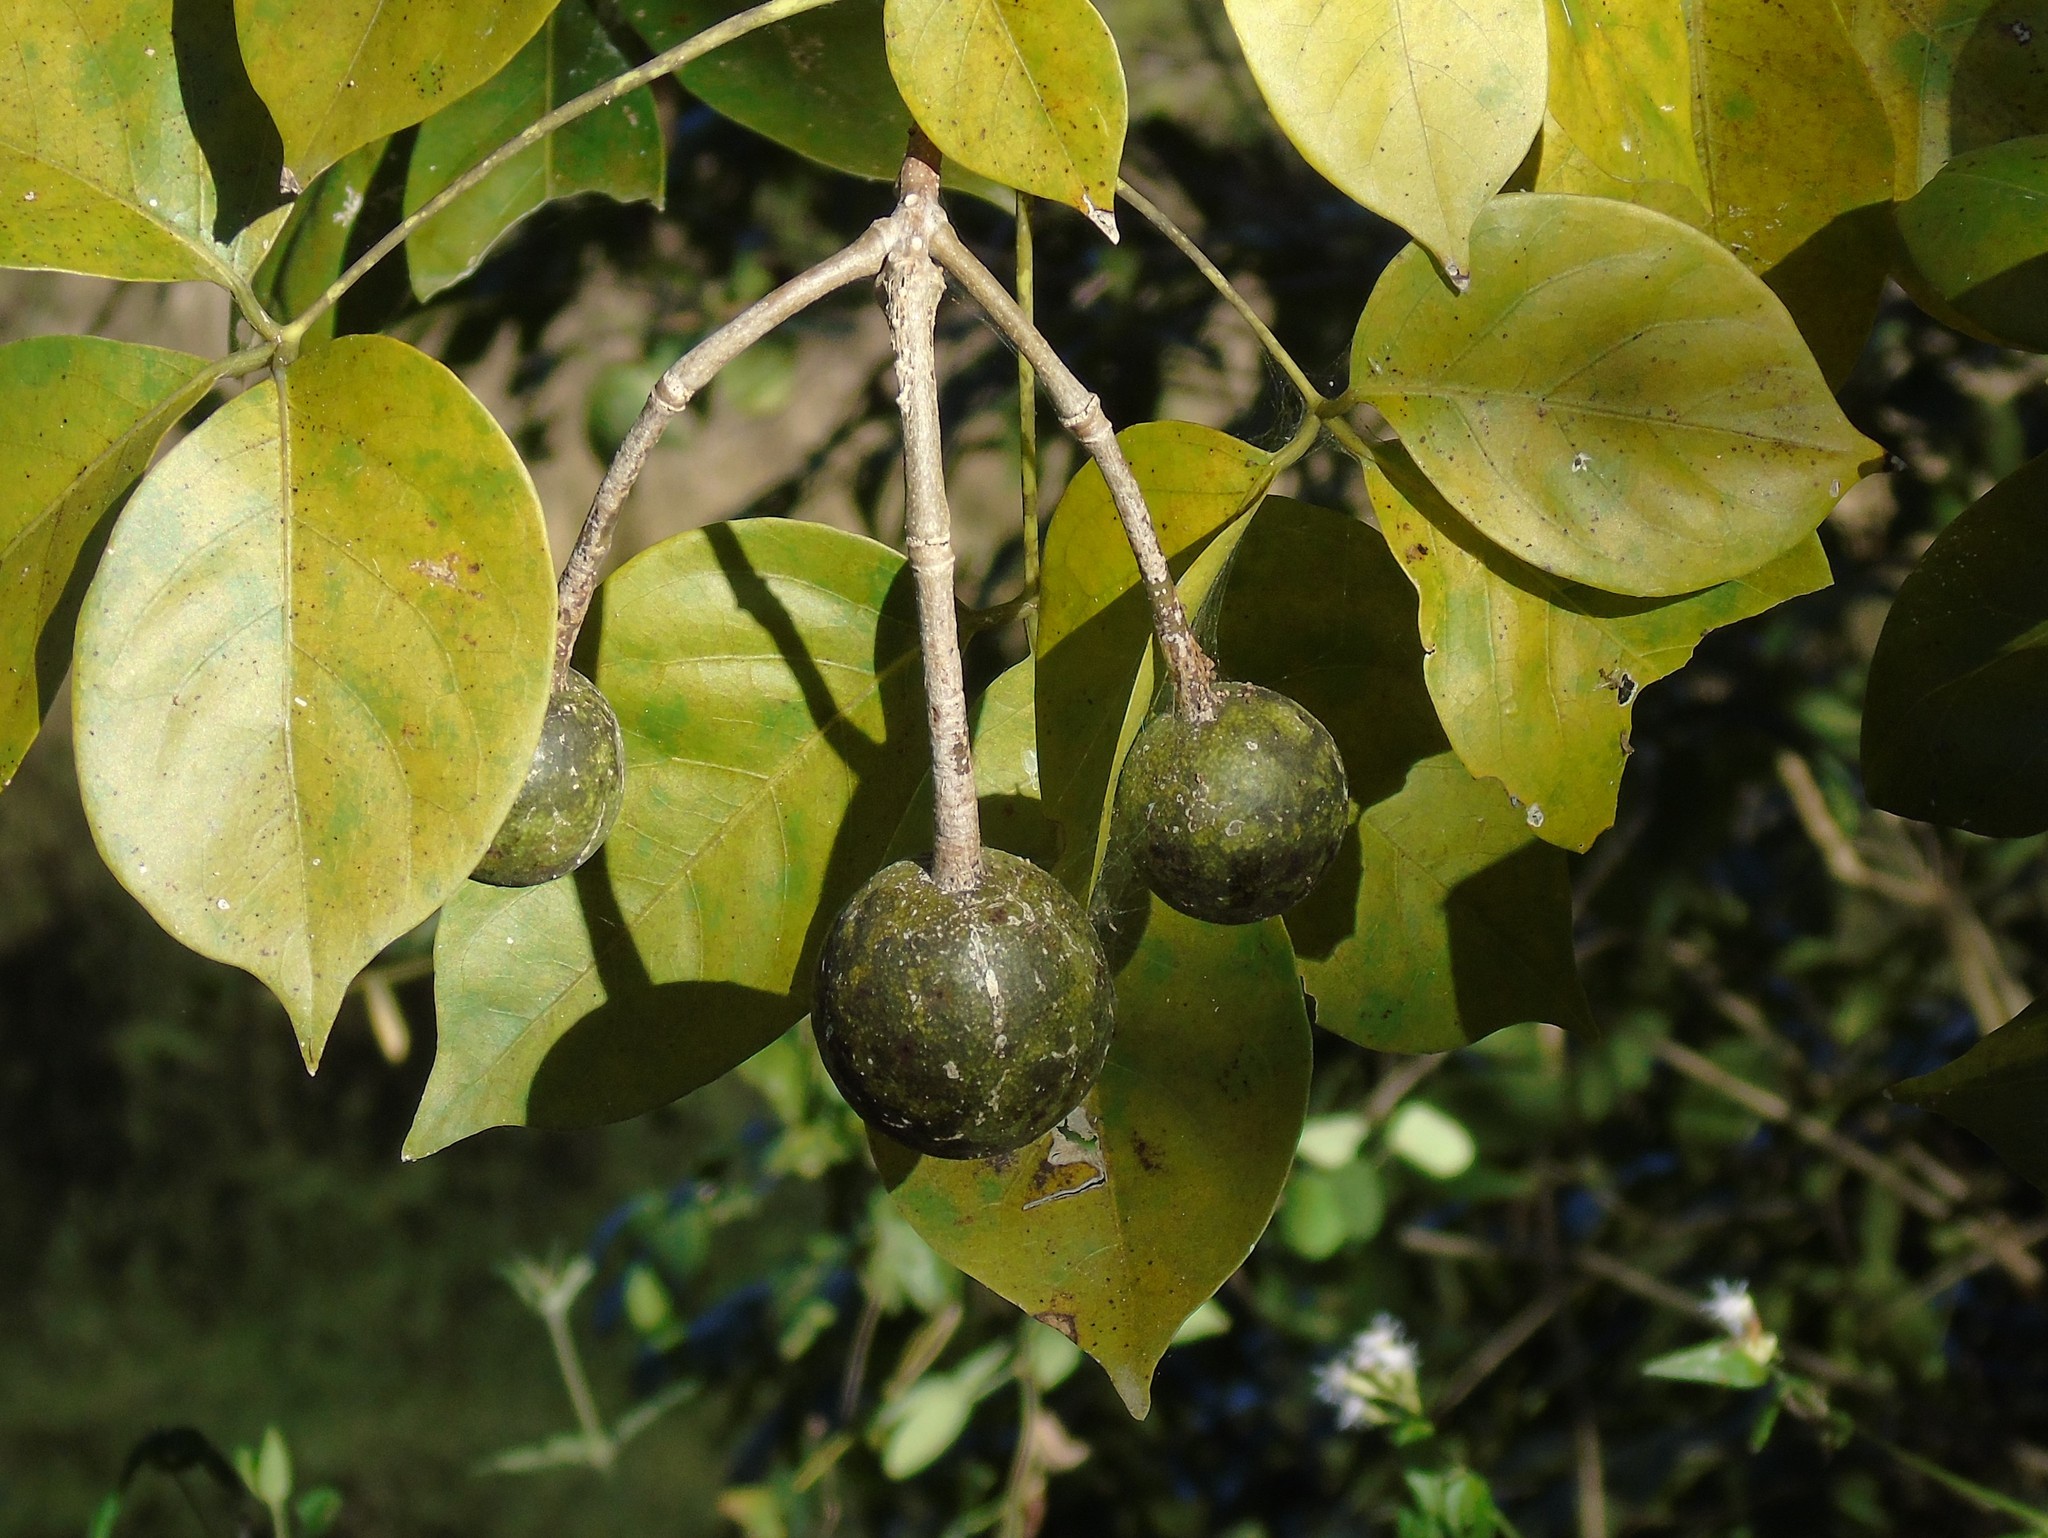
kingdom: Plantae
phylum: Tracheophyta
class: Magnoliopsida
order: Brassicales
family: Capparaceae
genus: Crateva
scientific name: Crateva tapia
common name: Garlic-pear
